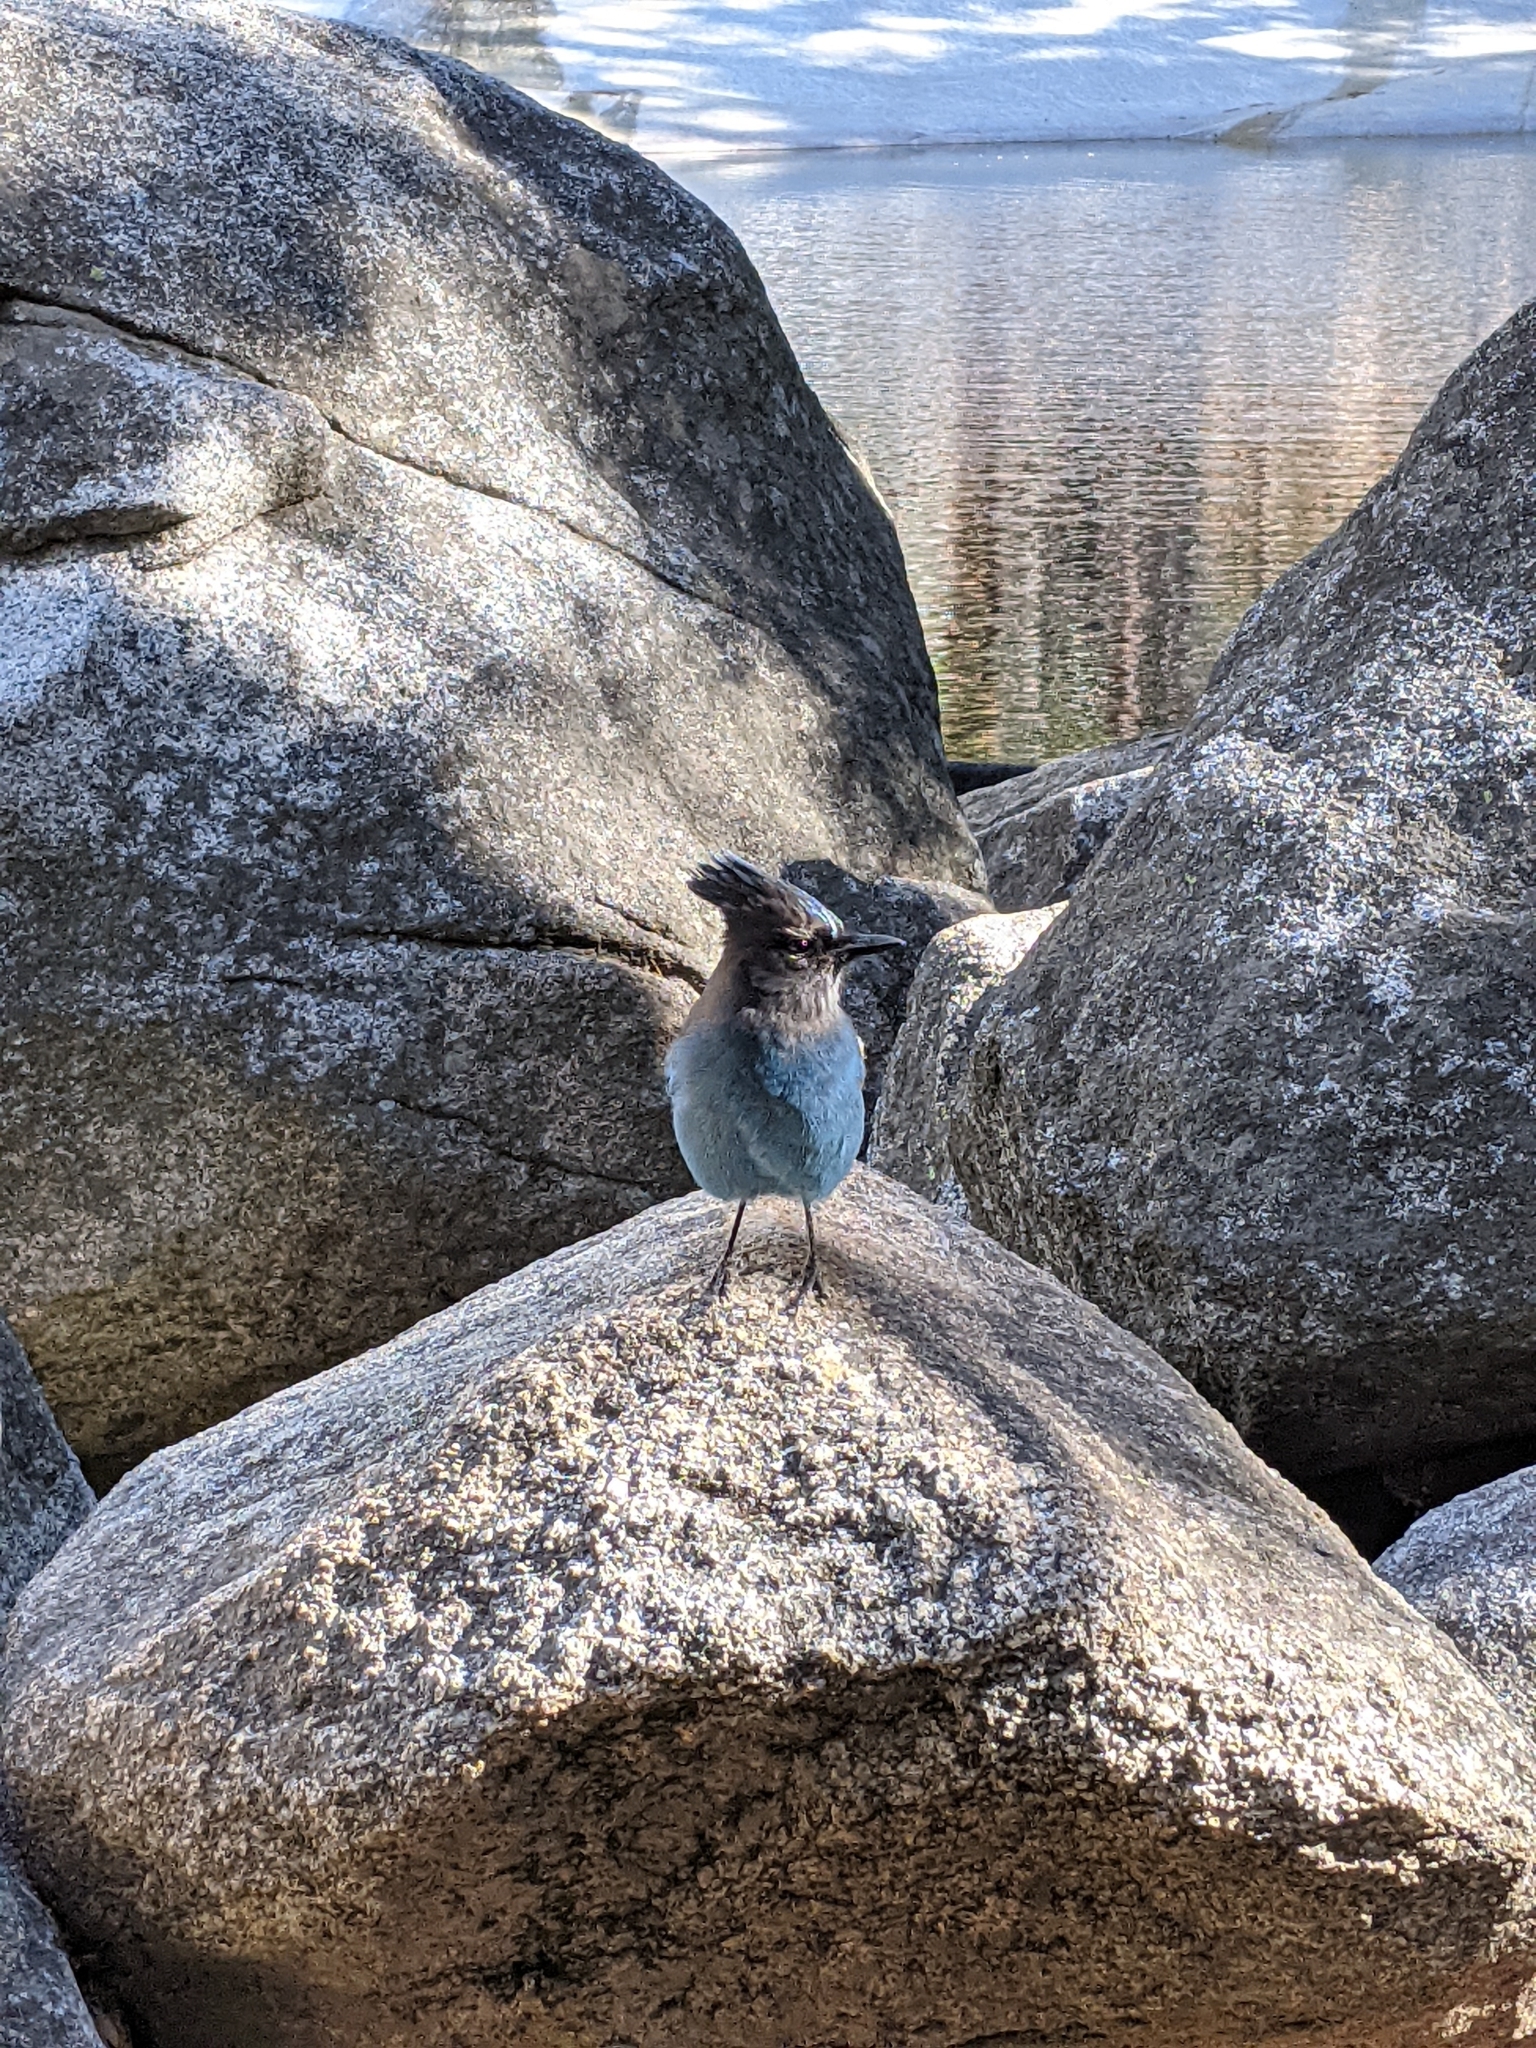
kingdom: Animalia
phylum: Chordata
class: Aves
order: Passeriformes
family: Corvidae
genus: Cyanocitta
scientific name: Cyanocitta stelleri
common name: Steller's jay
